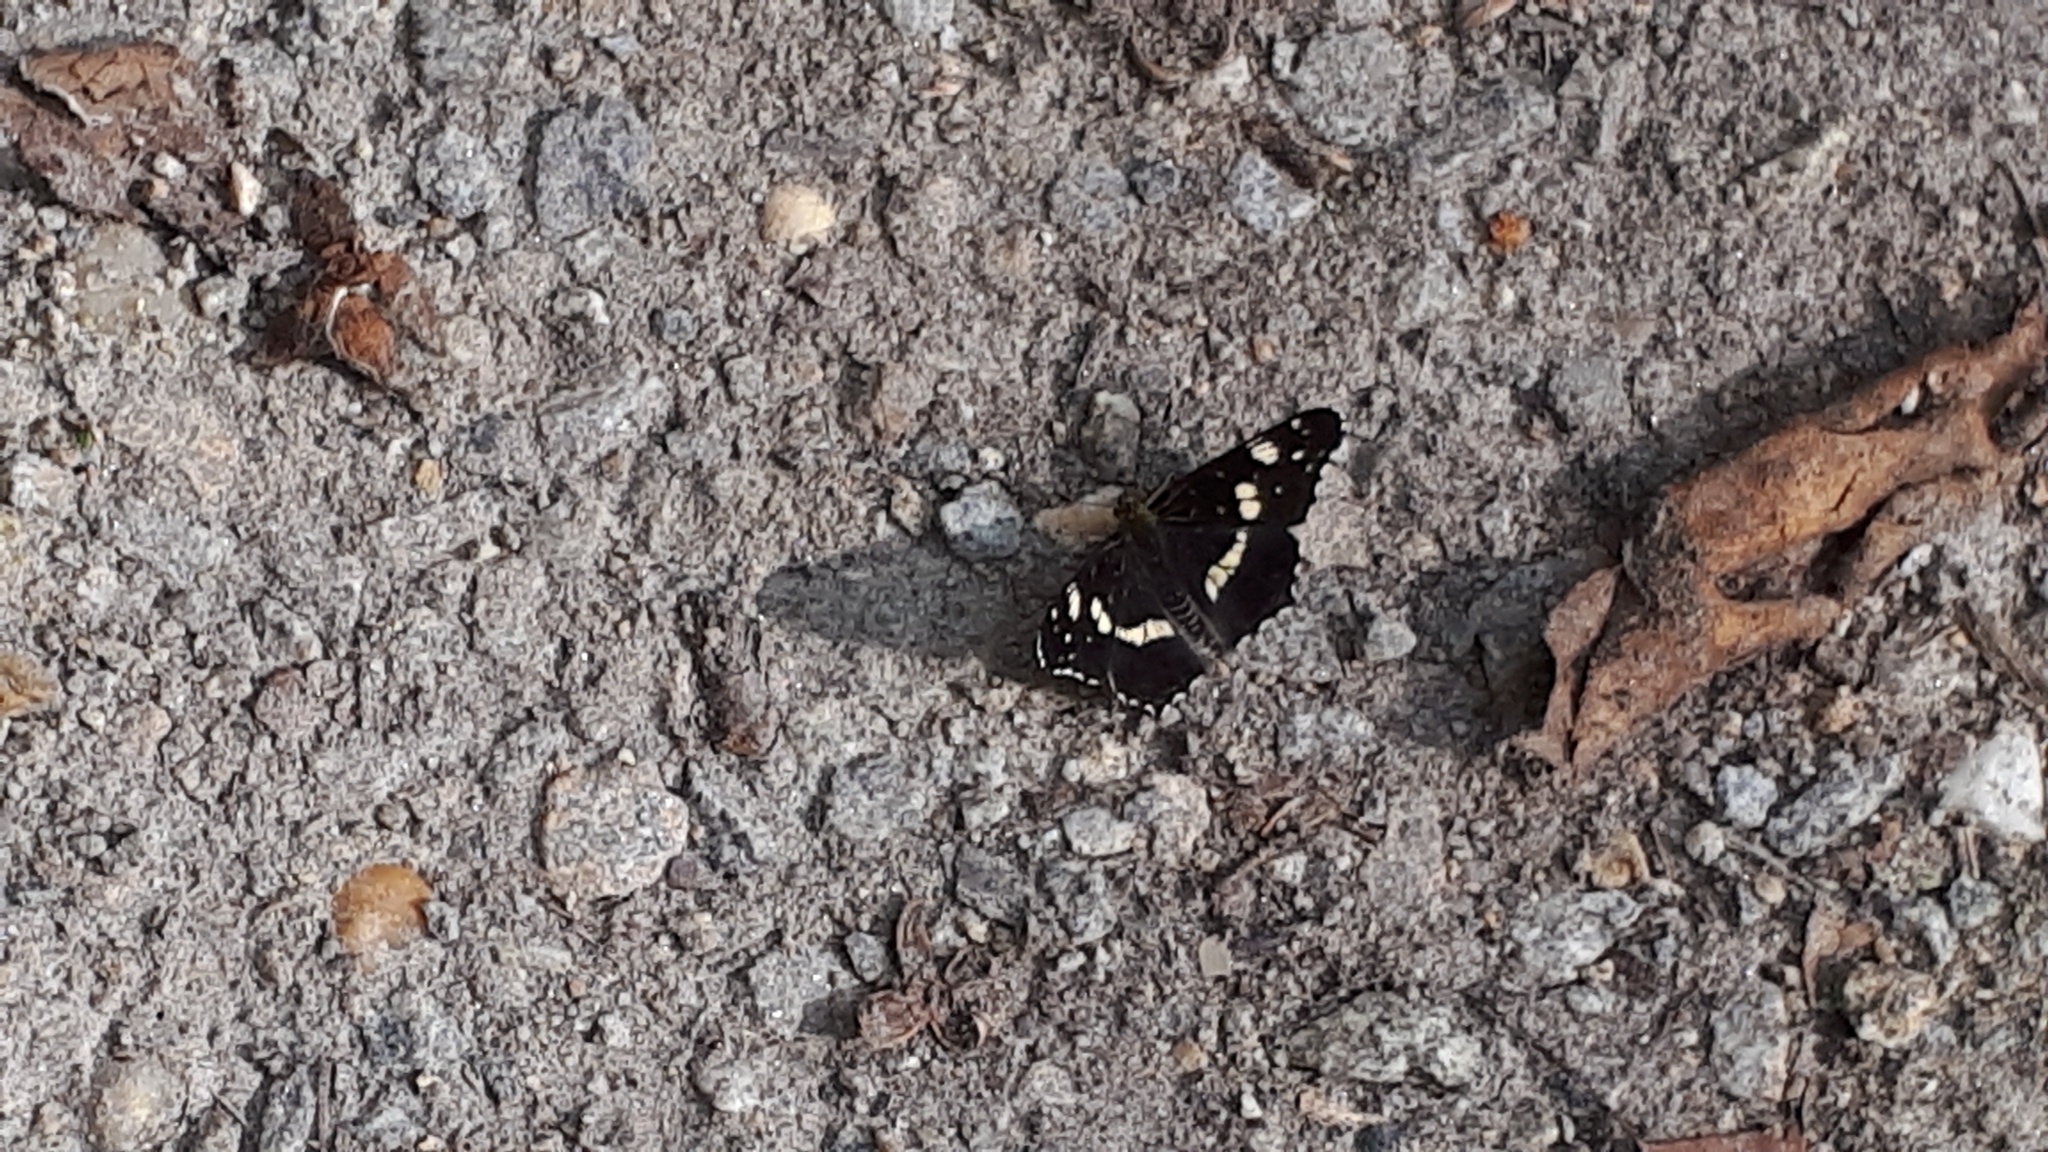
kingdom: Animalia
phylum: Arthropoda
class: Insecta
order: Lepidoptera
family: Nymphalidae
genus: Araschnia
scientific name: Araschnia levana
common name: Map butterfly
